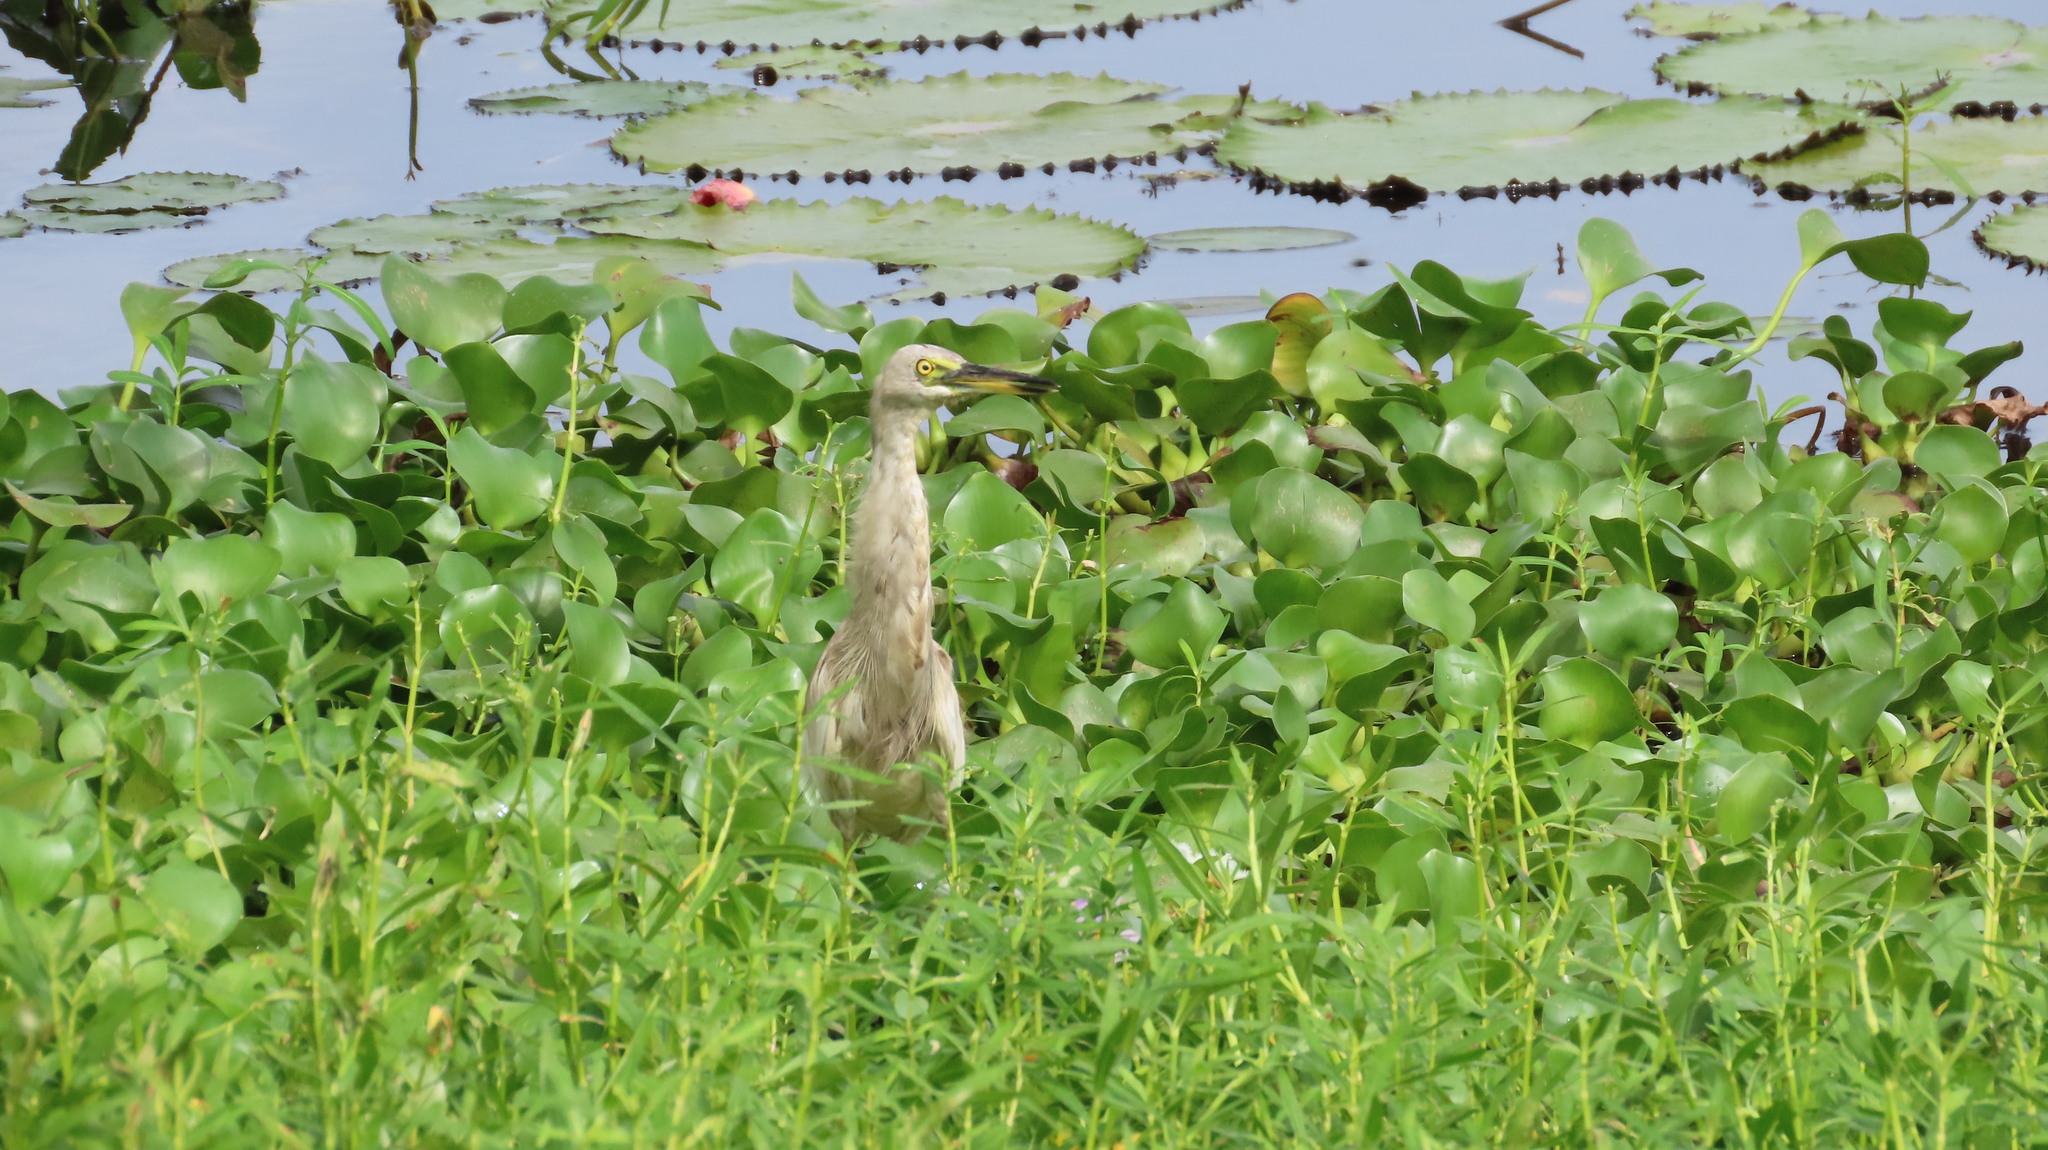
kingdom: Animalia
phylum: Chordata
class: Aves
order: Pelecaniformes
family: Ardeidae
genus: Ardeola
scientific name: Ardeola grayii
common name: Indian pond heron
